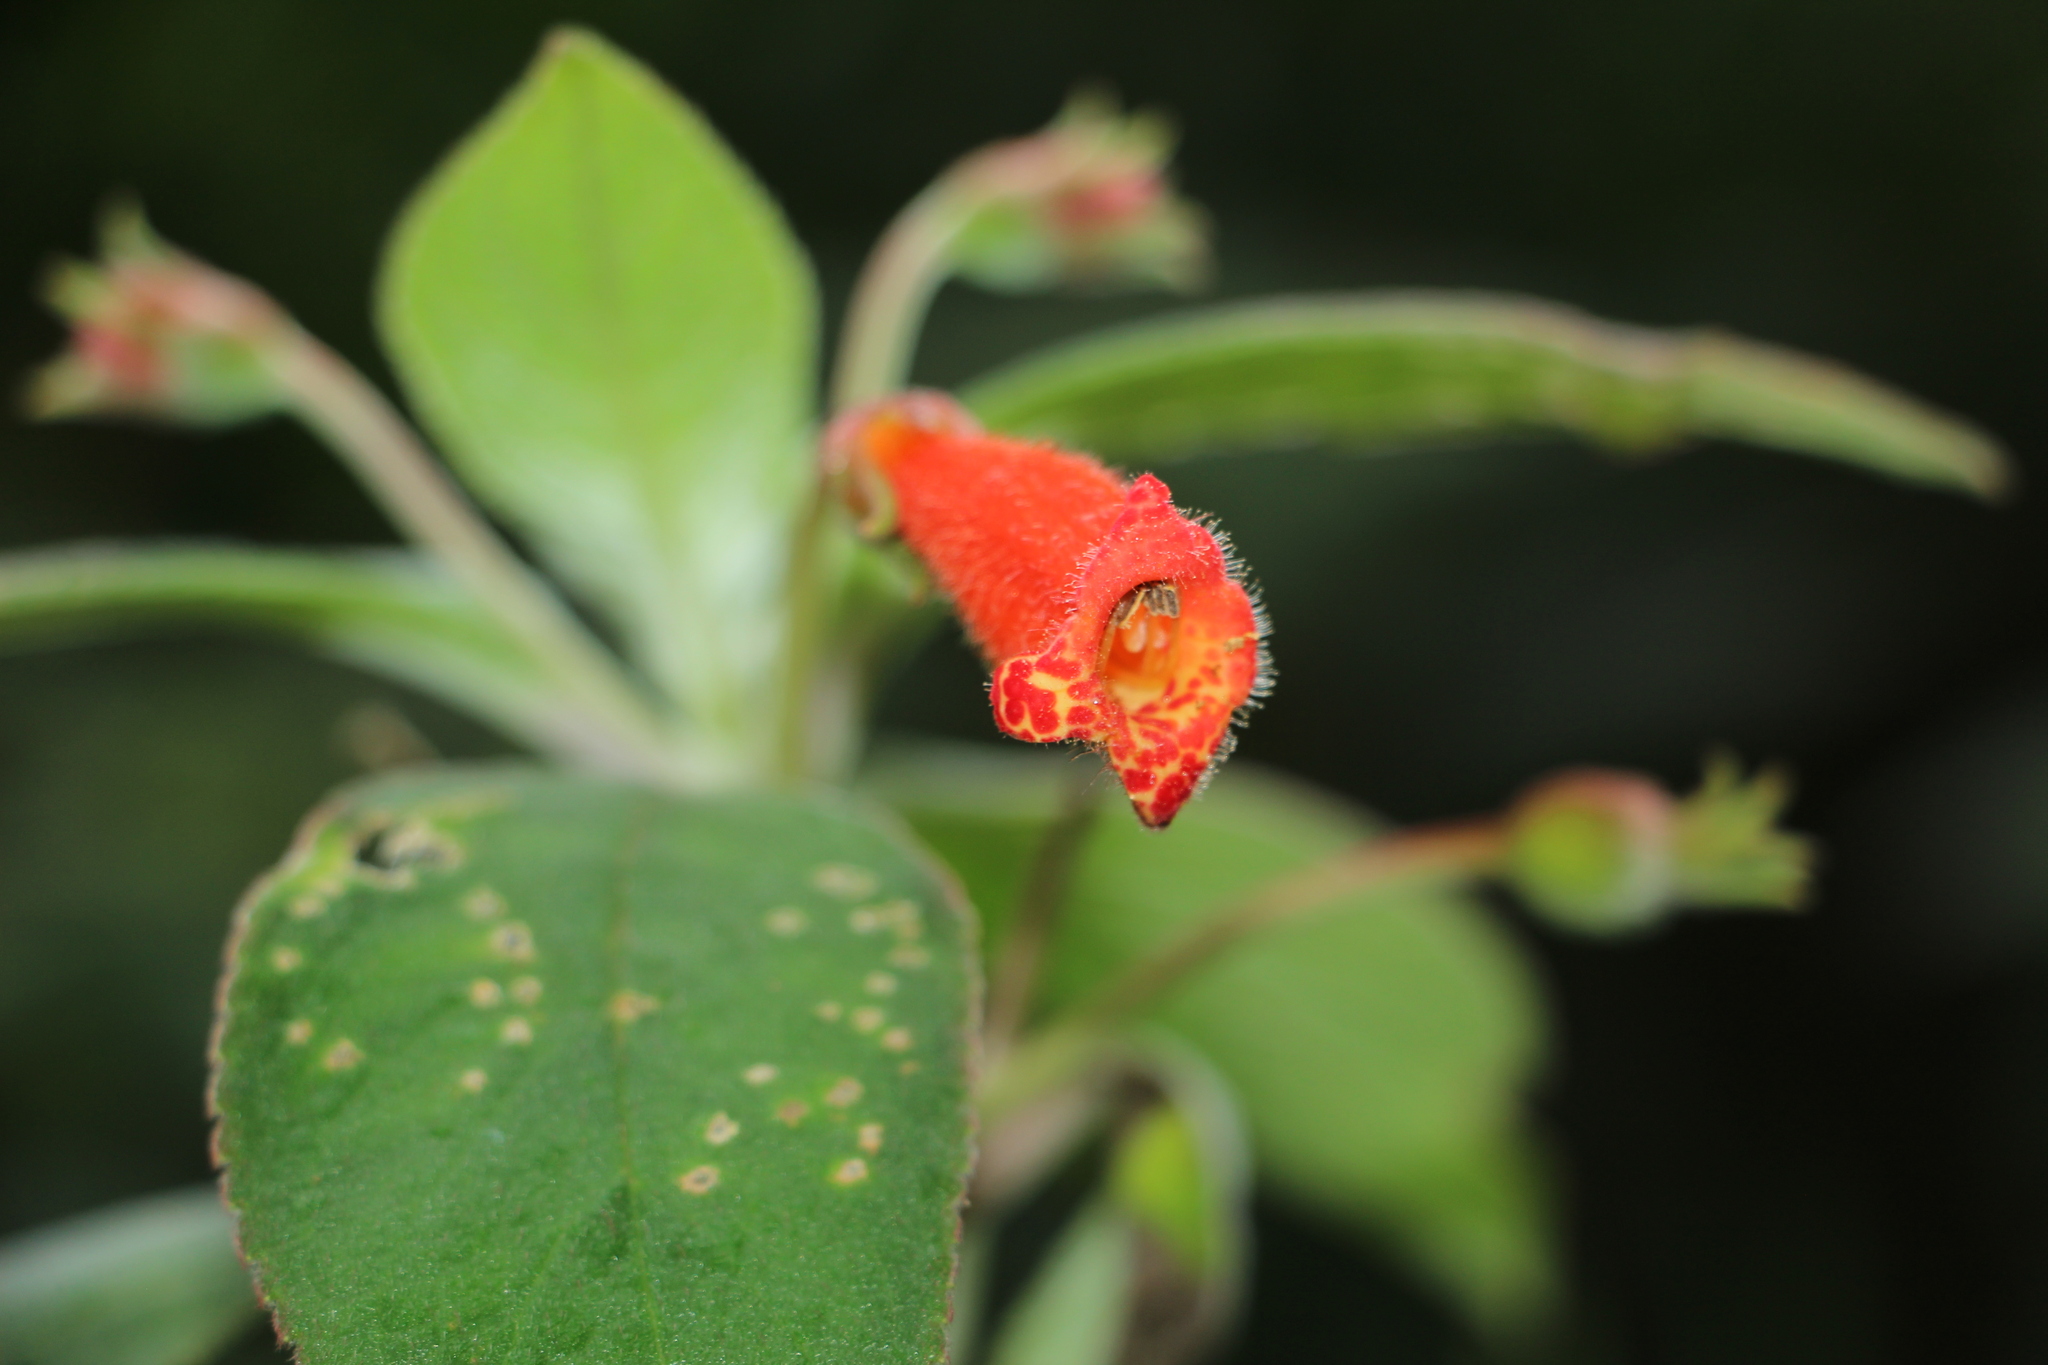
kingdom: Plantae
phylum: Tracheophyta
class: Magnoliopsida
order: Lamiales
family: Gesneriaceae
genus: Kohleria
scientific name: Kohleria hirsuta
